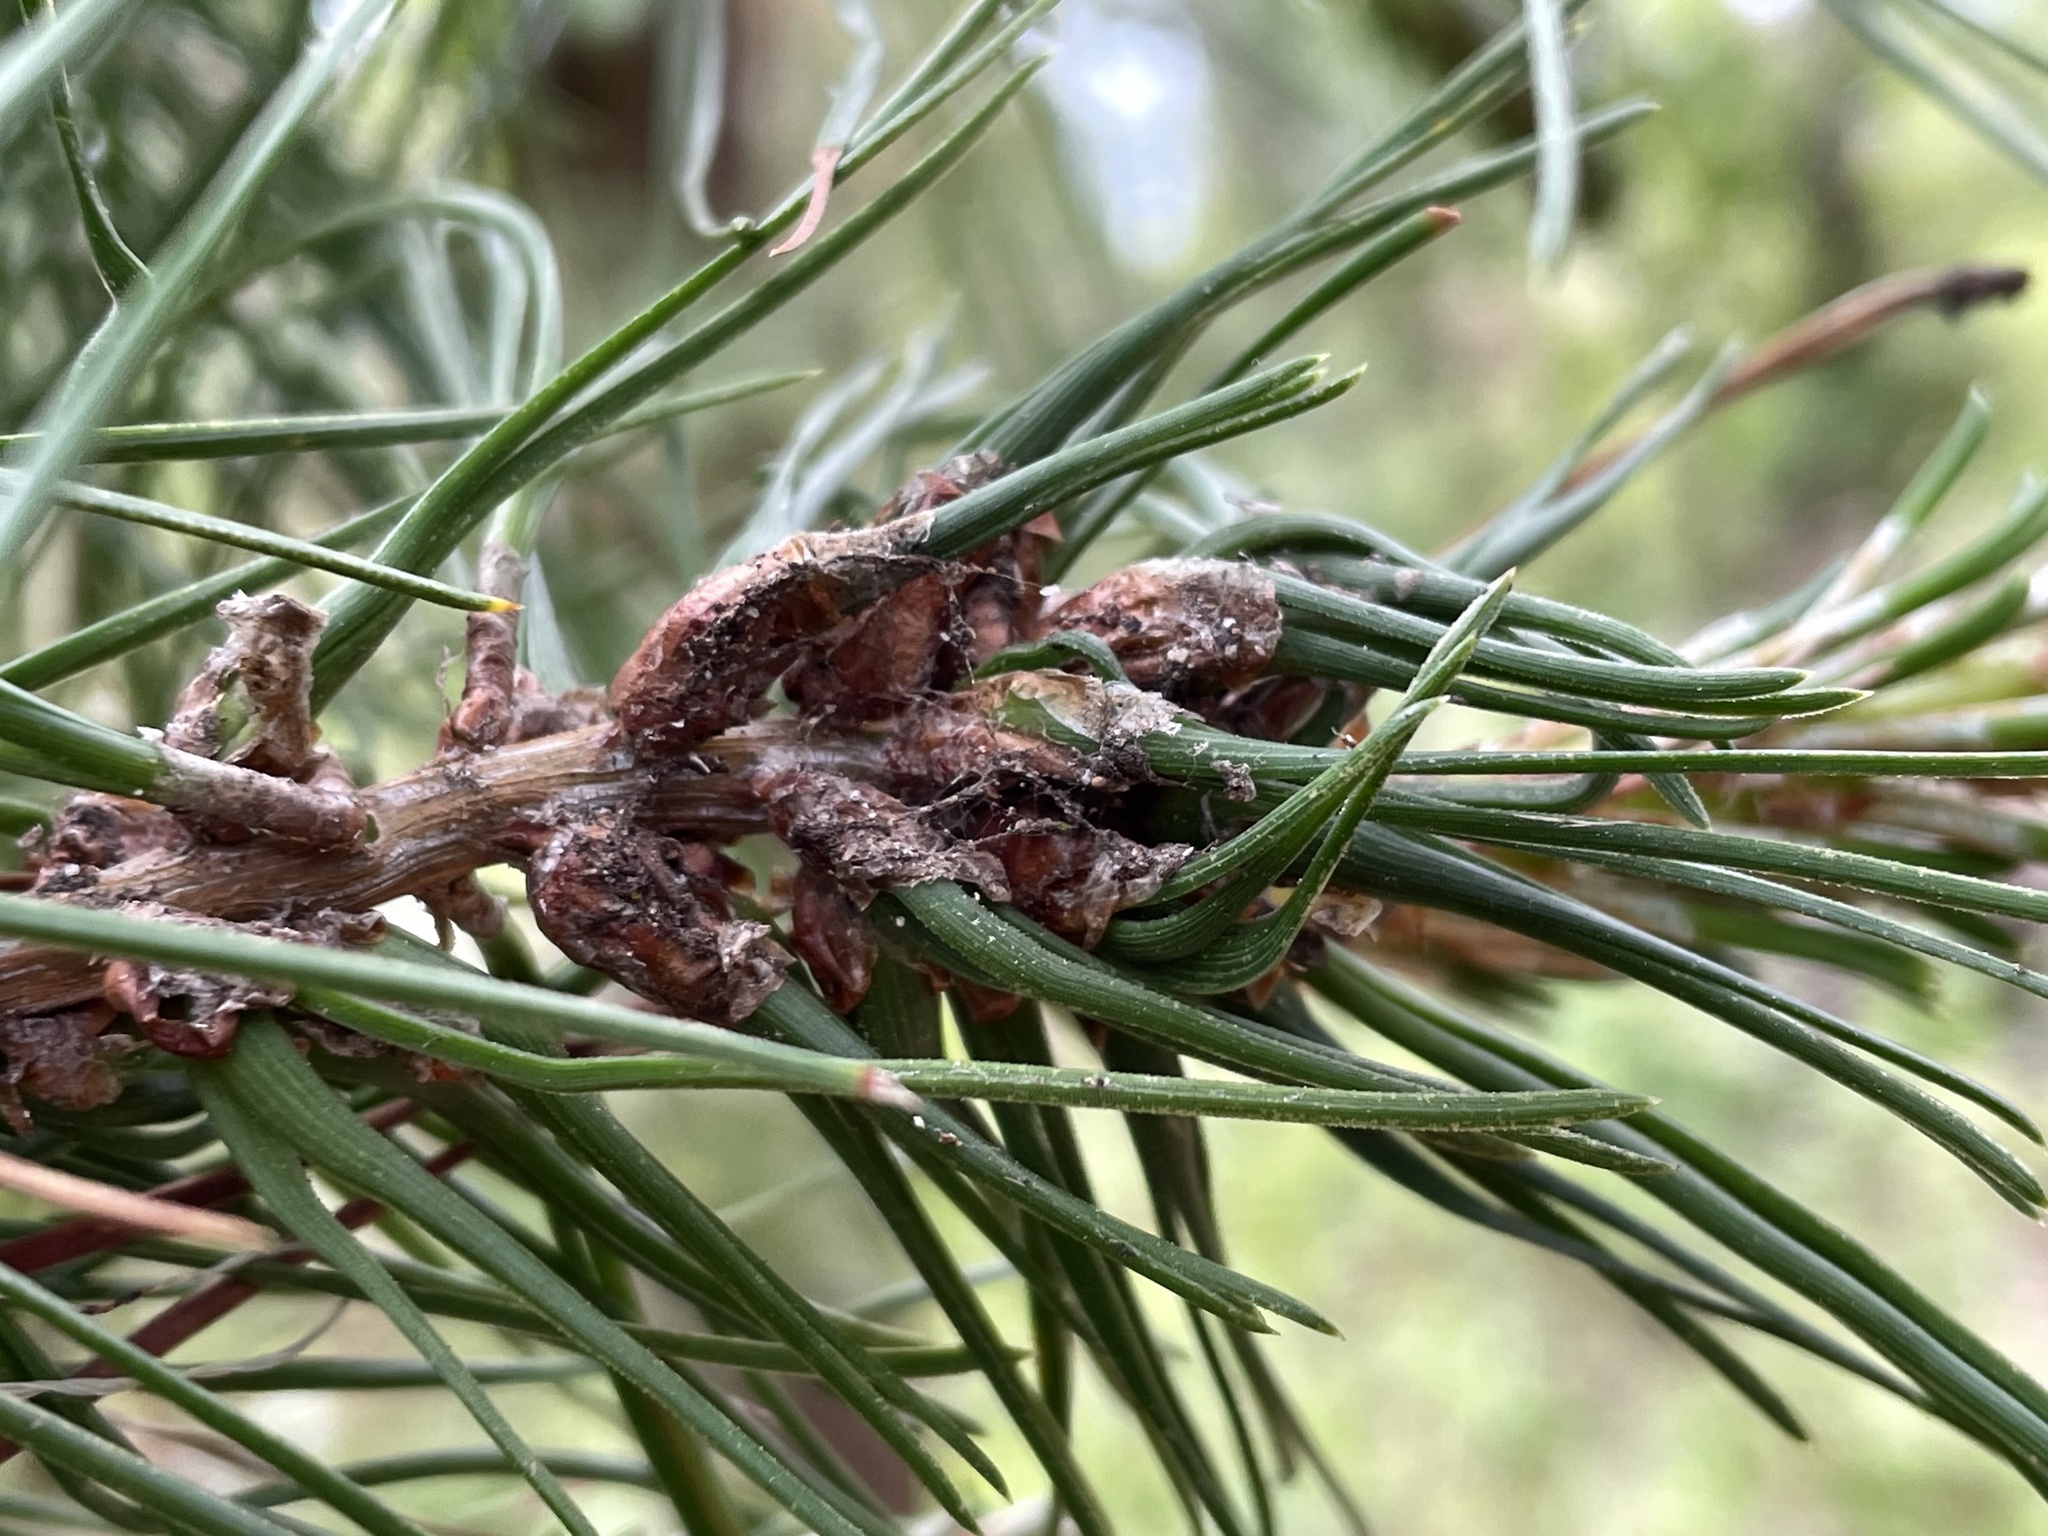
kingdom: Animalia
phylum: Arthropoda
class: Insecta
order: Diptera
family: Cecidomyiidae
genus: Thecodiplosis
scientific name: Thecodiplosis piniradiatae
